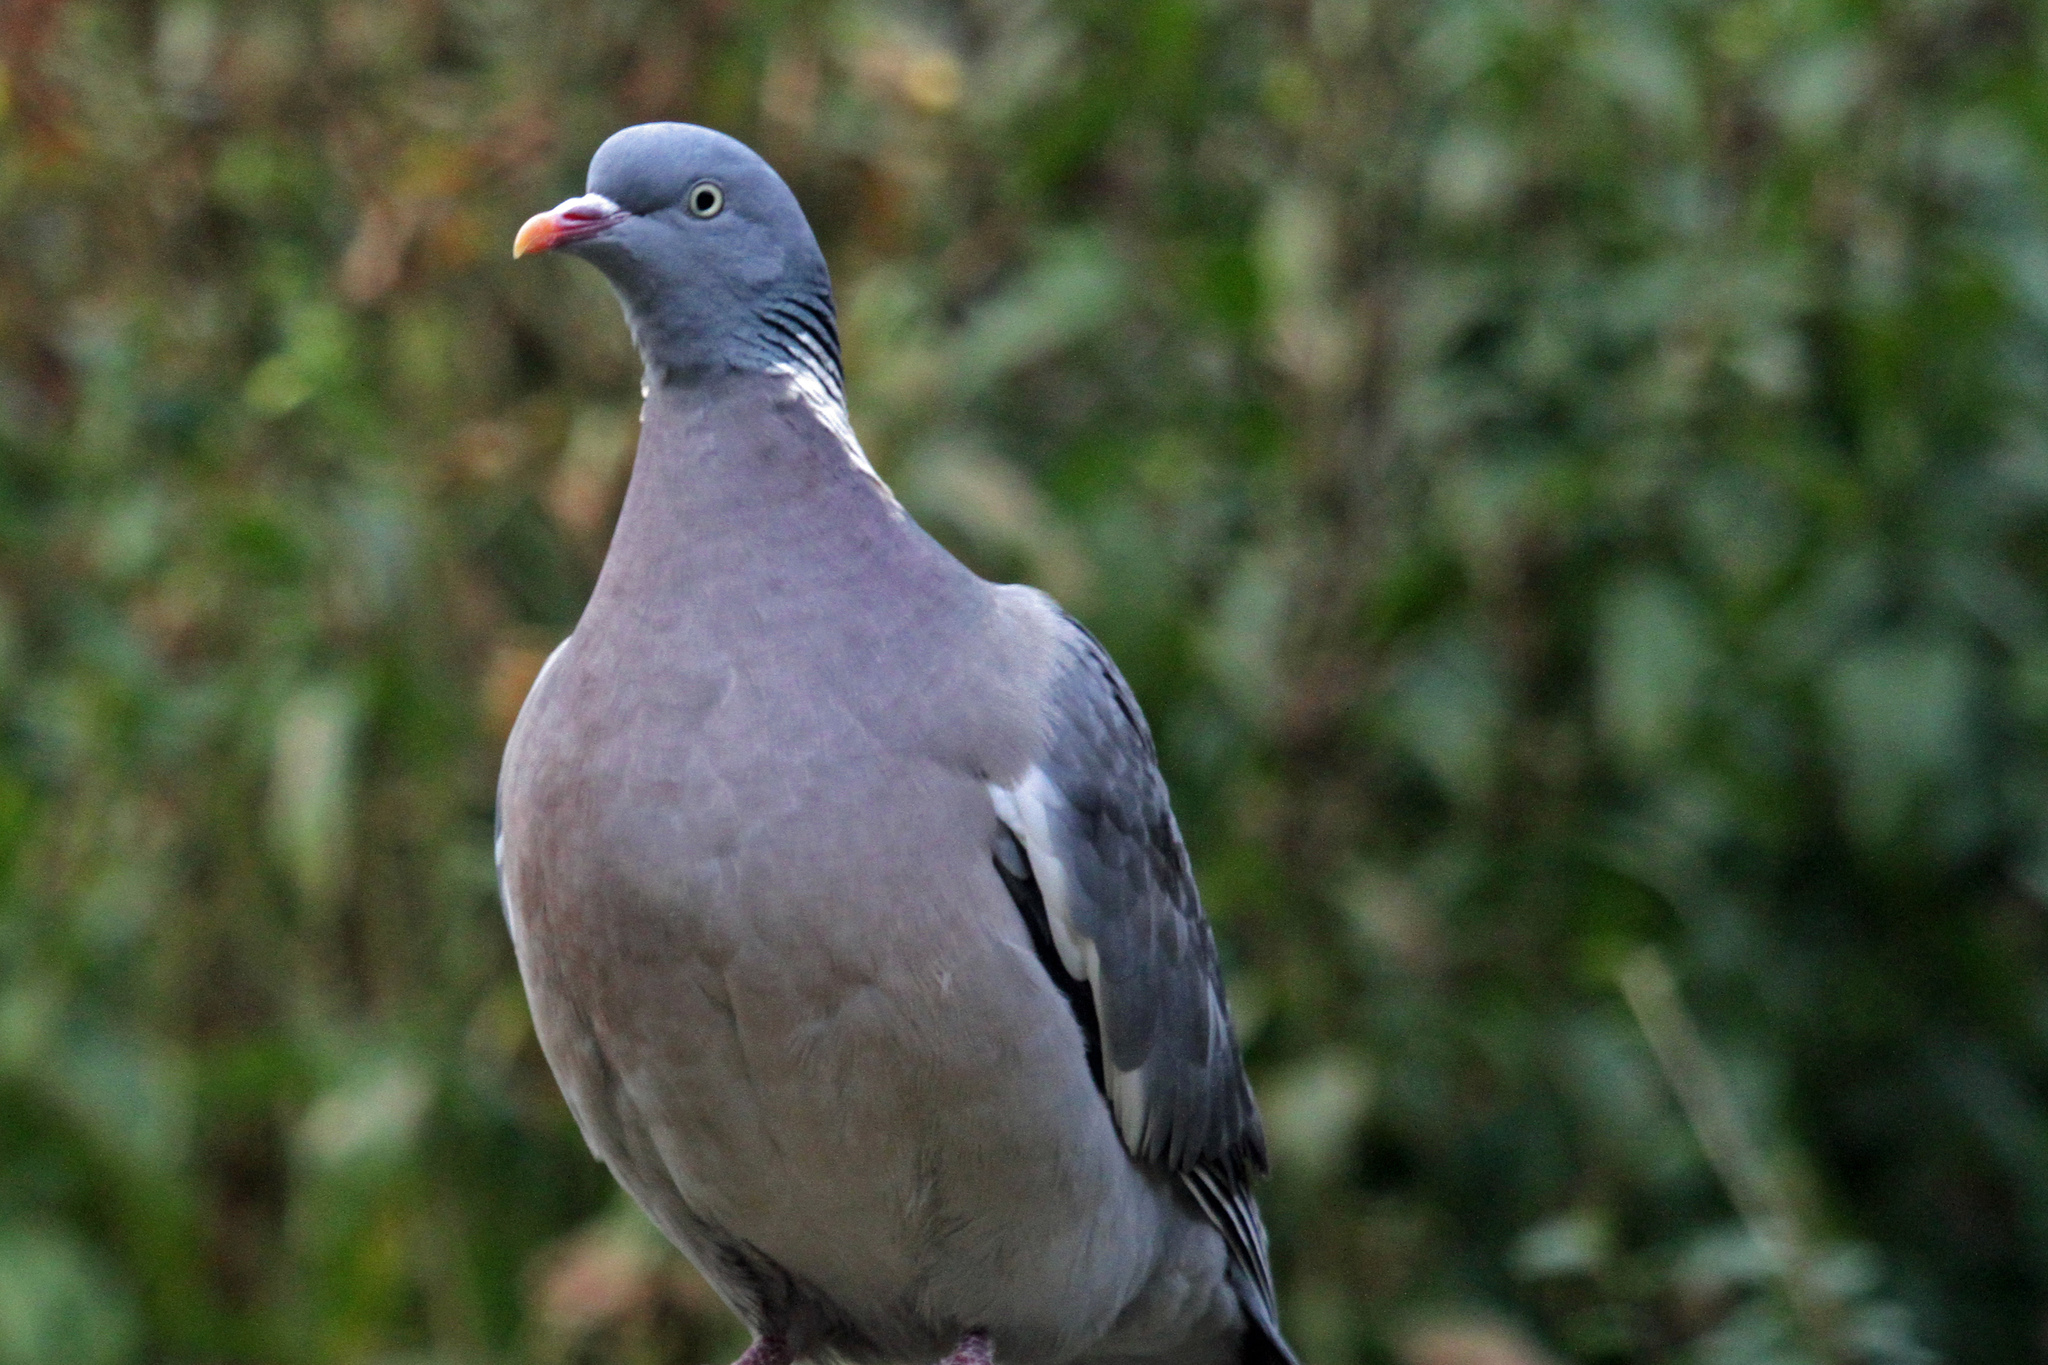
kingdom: Animalia
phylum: Chordata
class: Aves
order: Columbiformes
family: Columbidae
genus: Columba
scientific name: Columba palumbus
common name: Common wood pigeon
